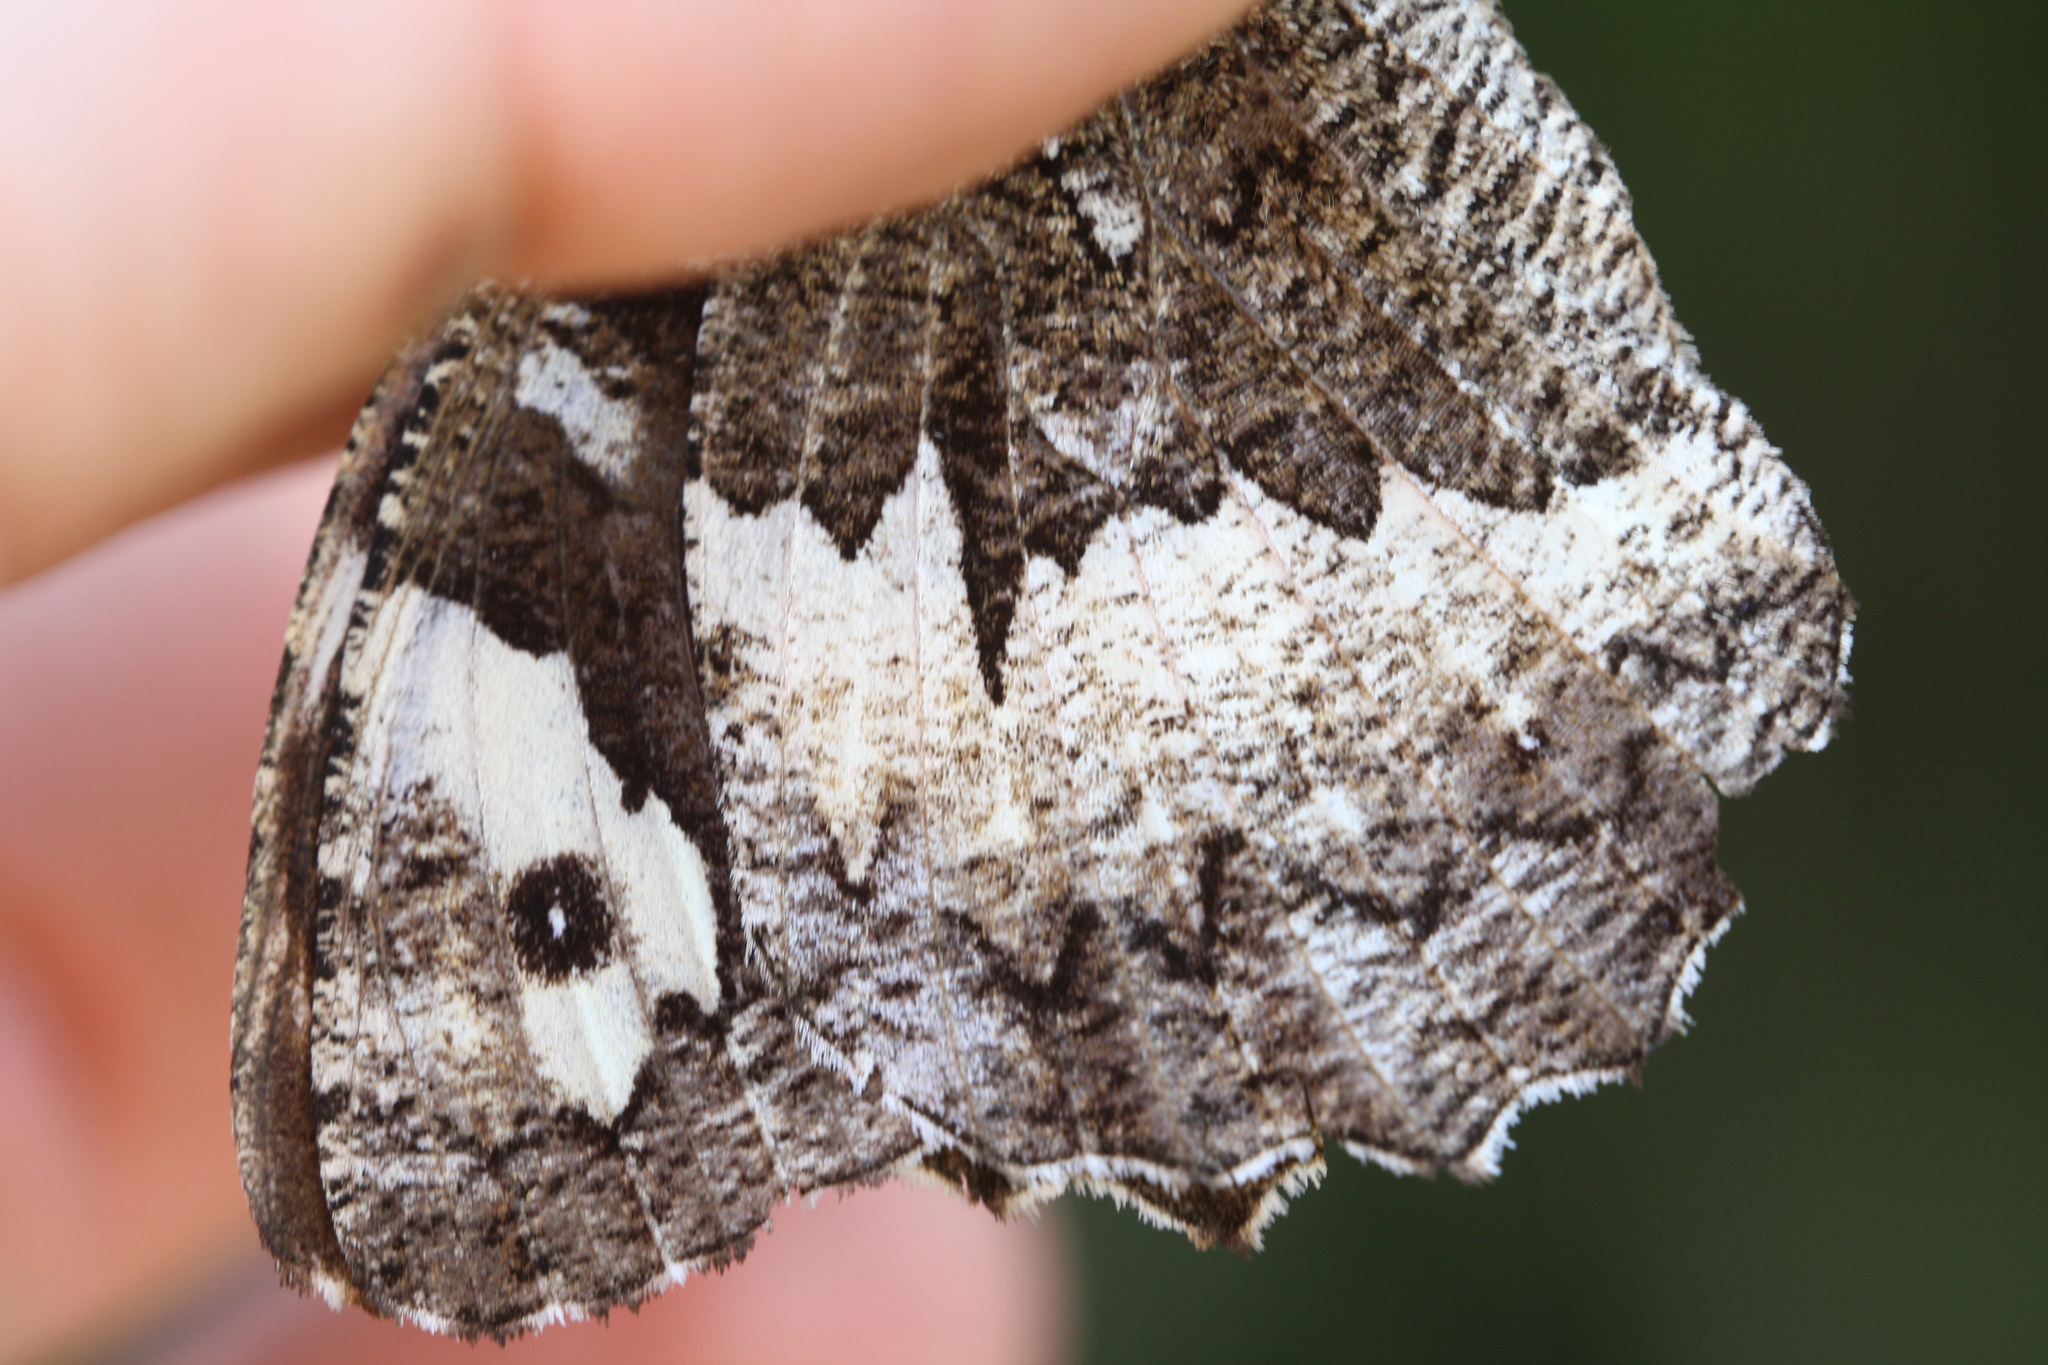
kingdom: Animalia
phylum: Arthropoda
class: Insecta
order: Lepidoptera
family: Lycaenidae
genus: Loweia
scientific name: Loweia tityrus
